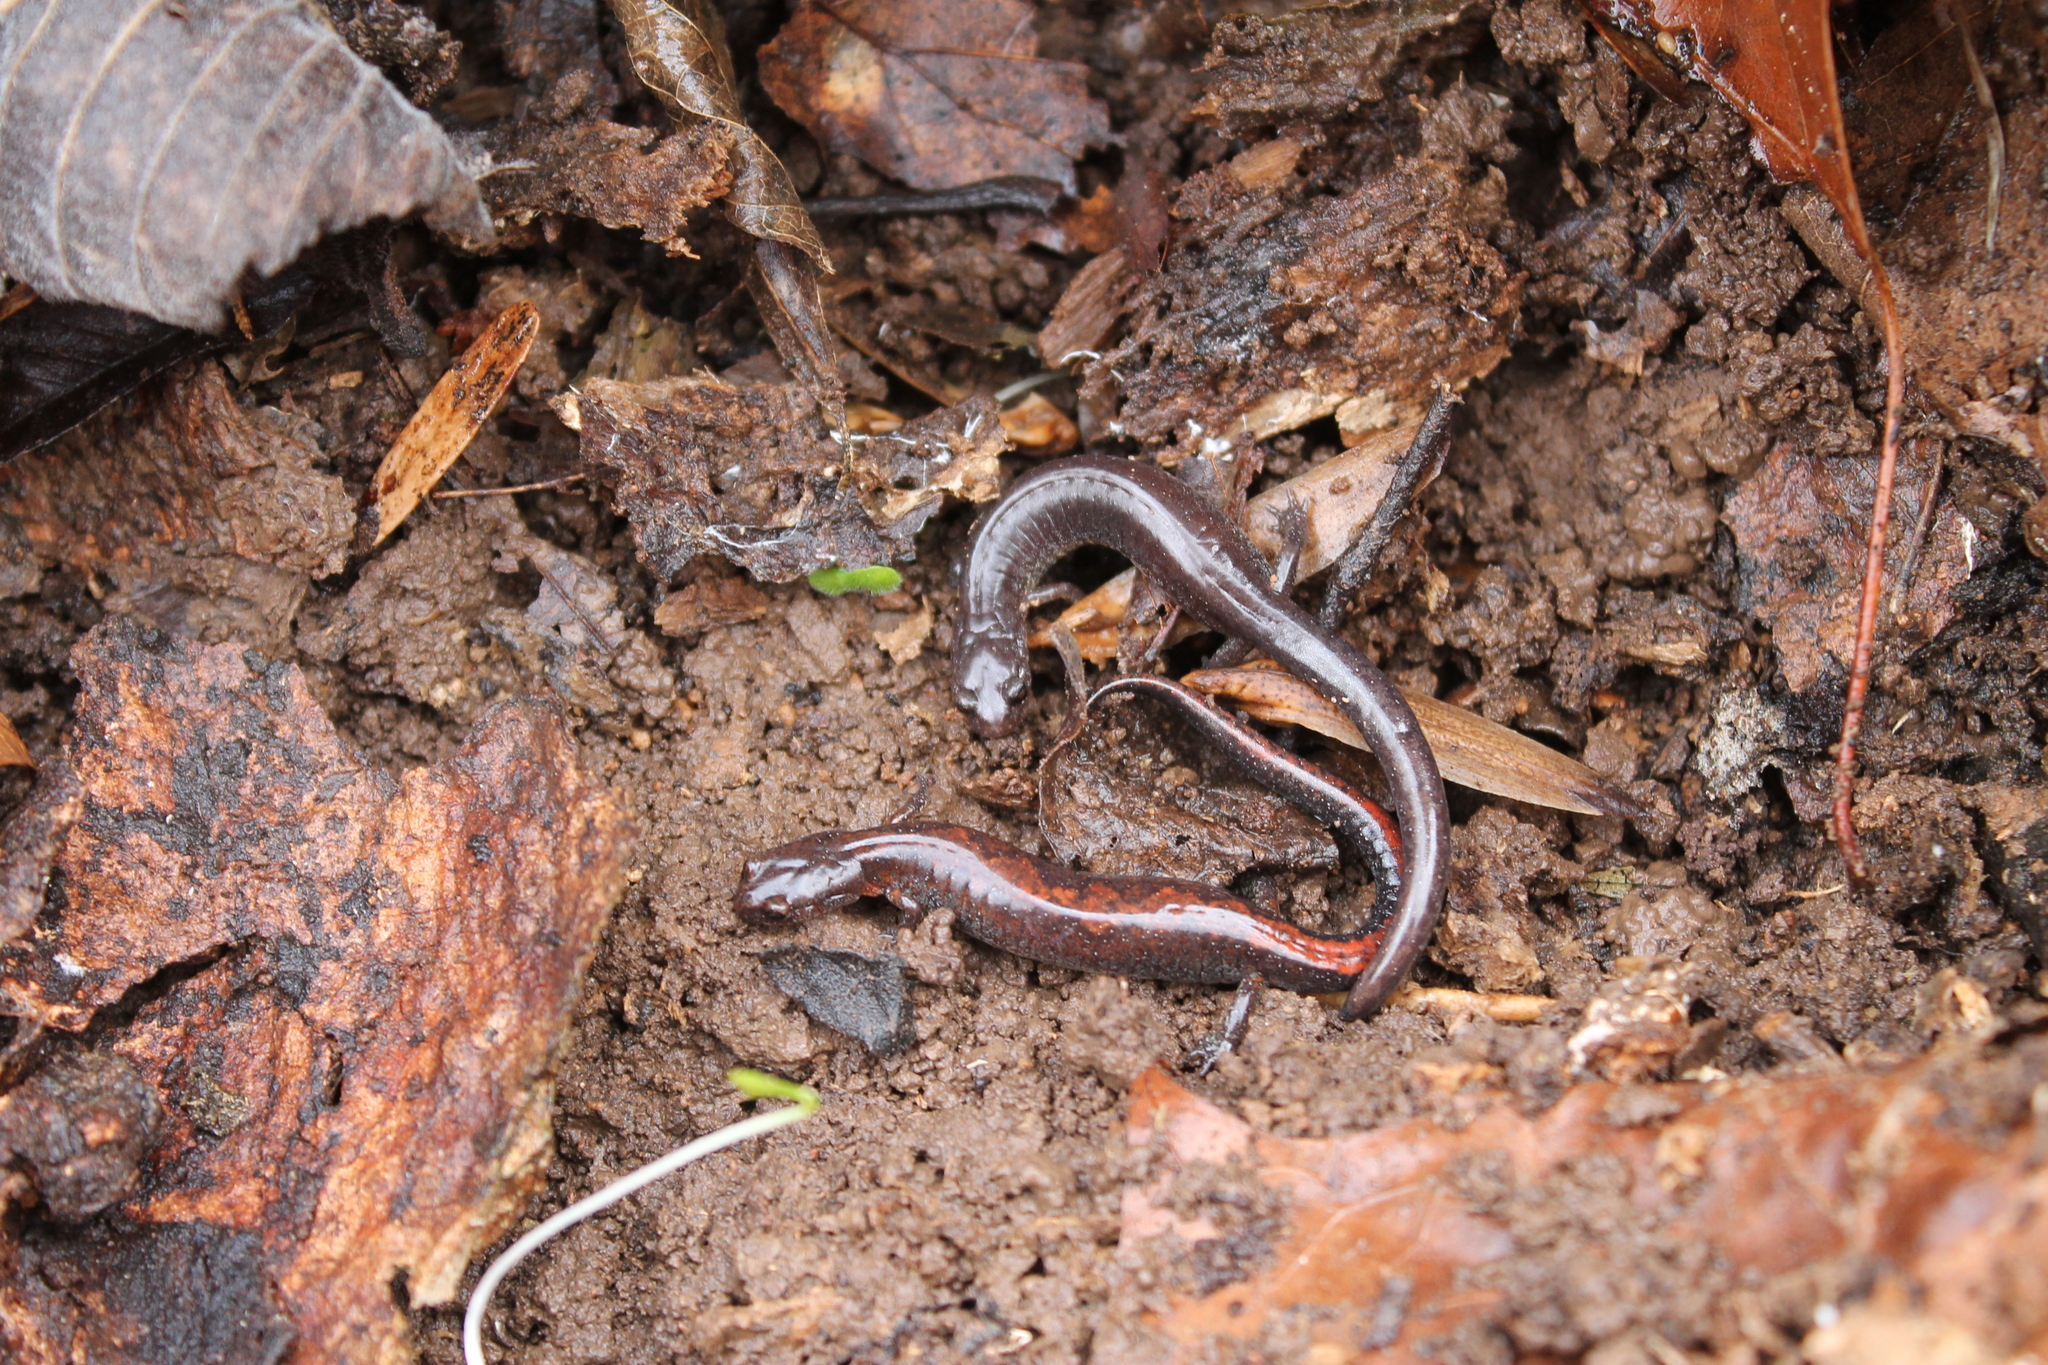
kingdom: Animalia
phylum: Chordata
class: Amphibia
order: Caudata
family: Plethodontidae
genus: Plethodon
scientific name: Plethodon dorsalis
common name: Northern zigzag salamander
